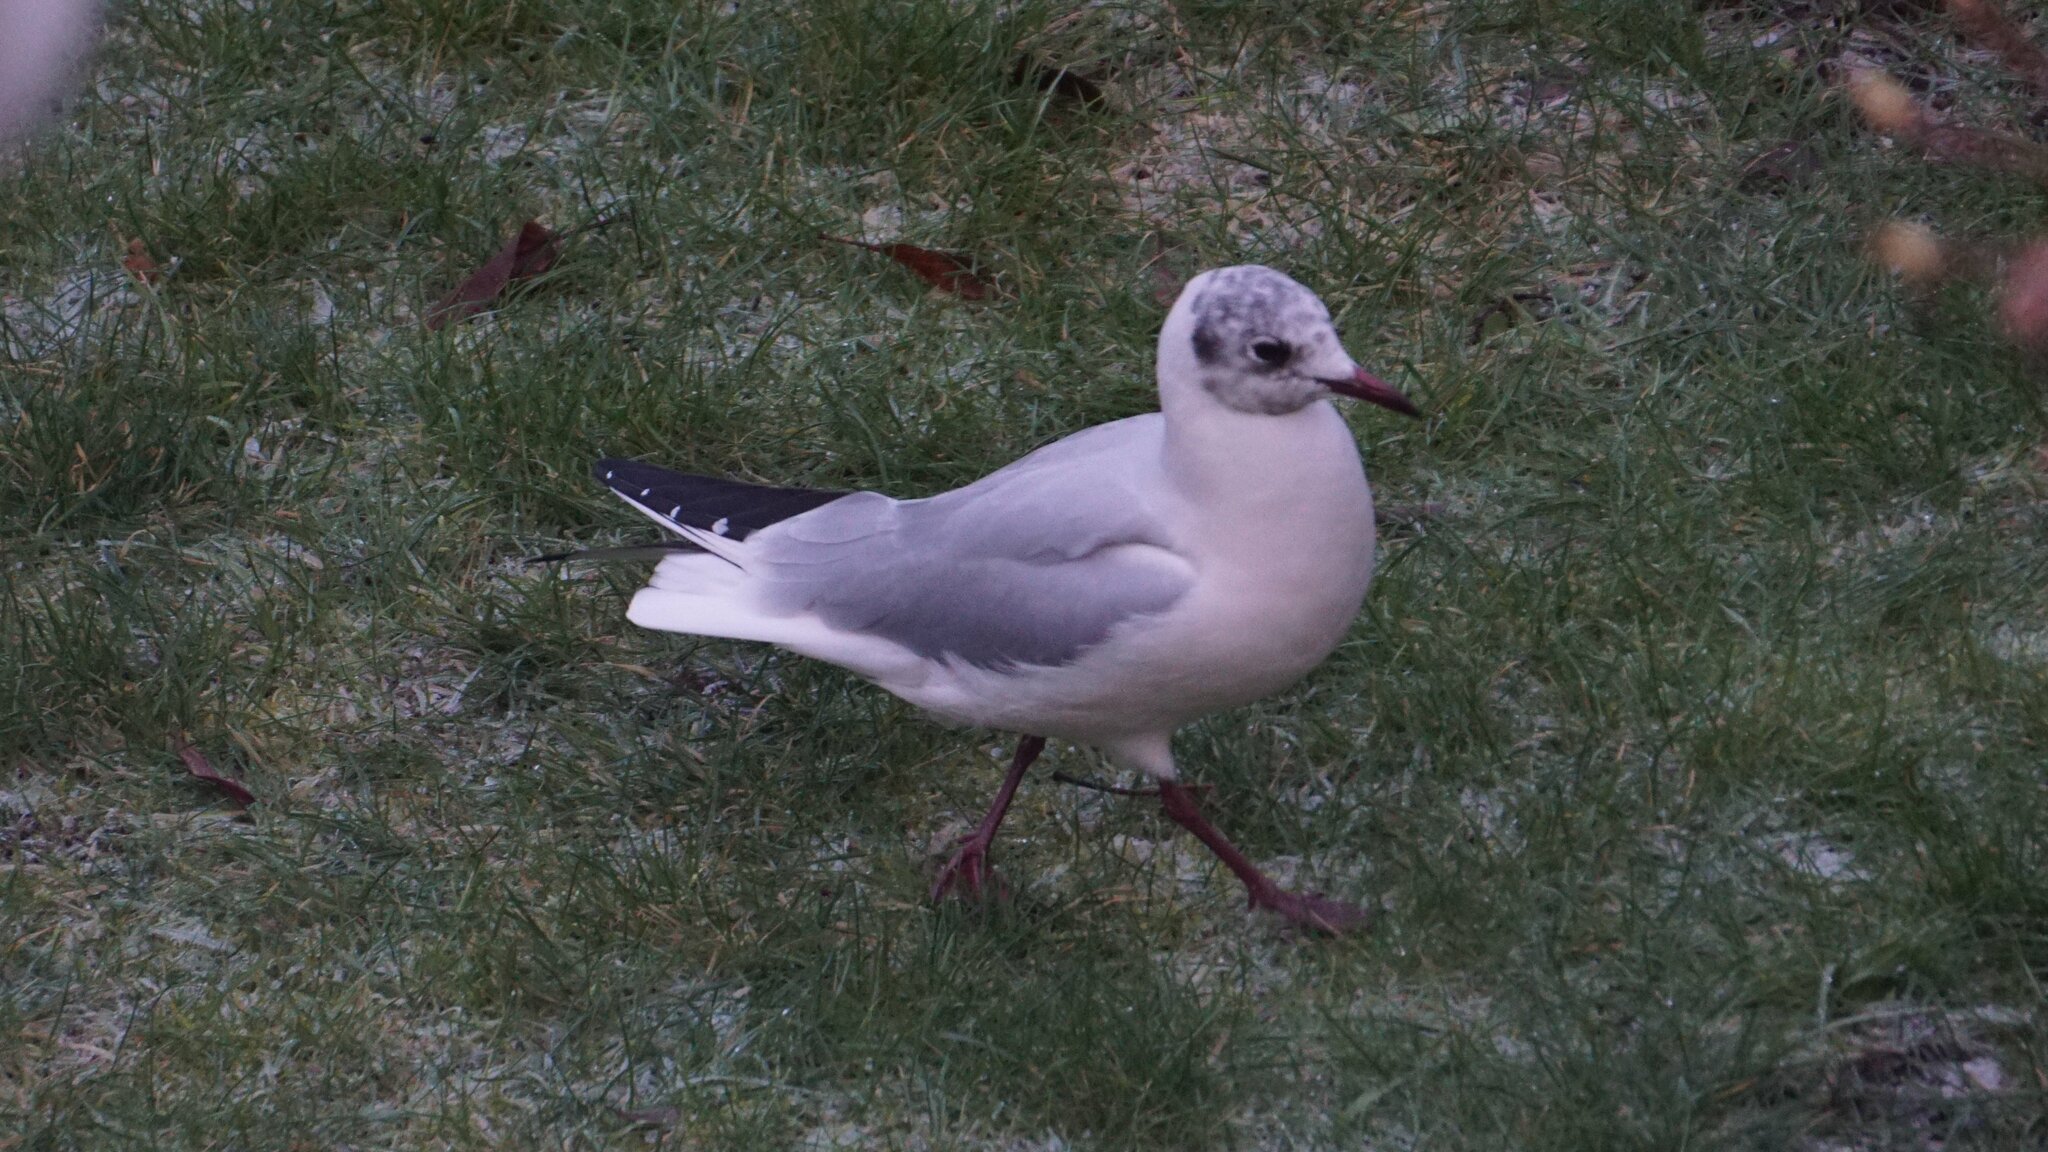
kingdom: Animalia
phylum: Chordata
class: Aves
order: Charadriiformes
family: Laridae
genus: Chroicocephalus
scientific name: Chroicocephalus ridibundus
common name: Black-headed gull
